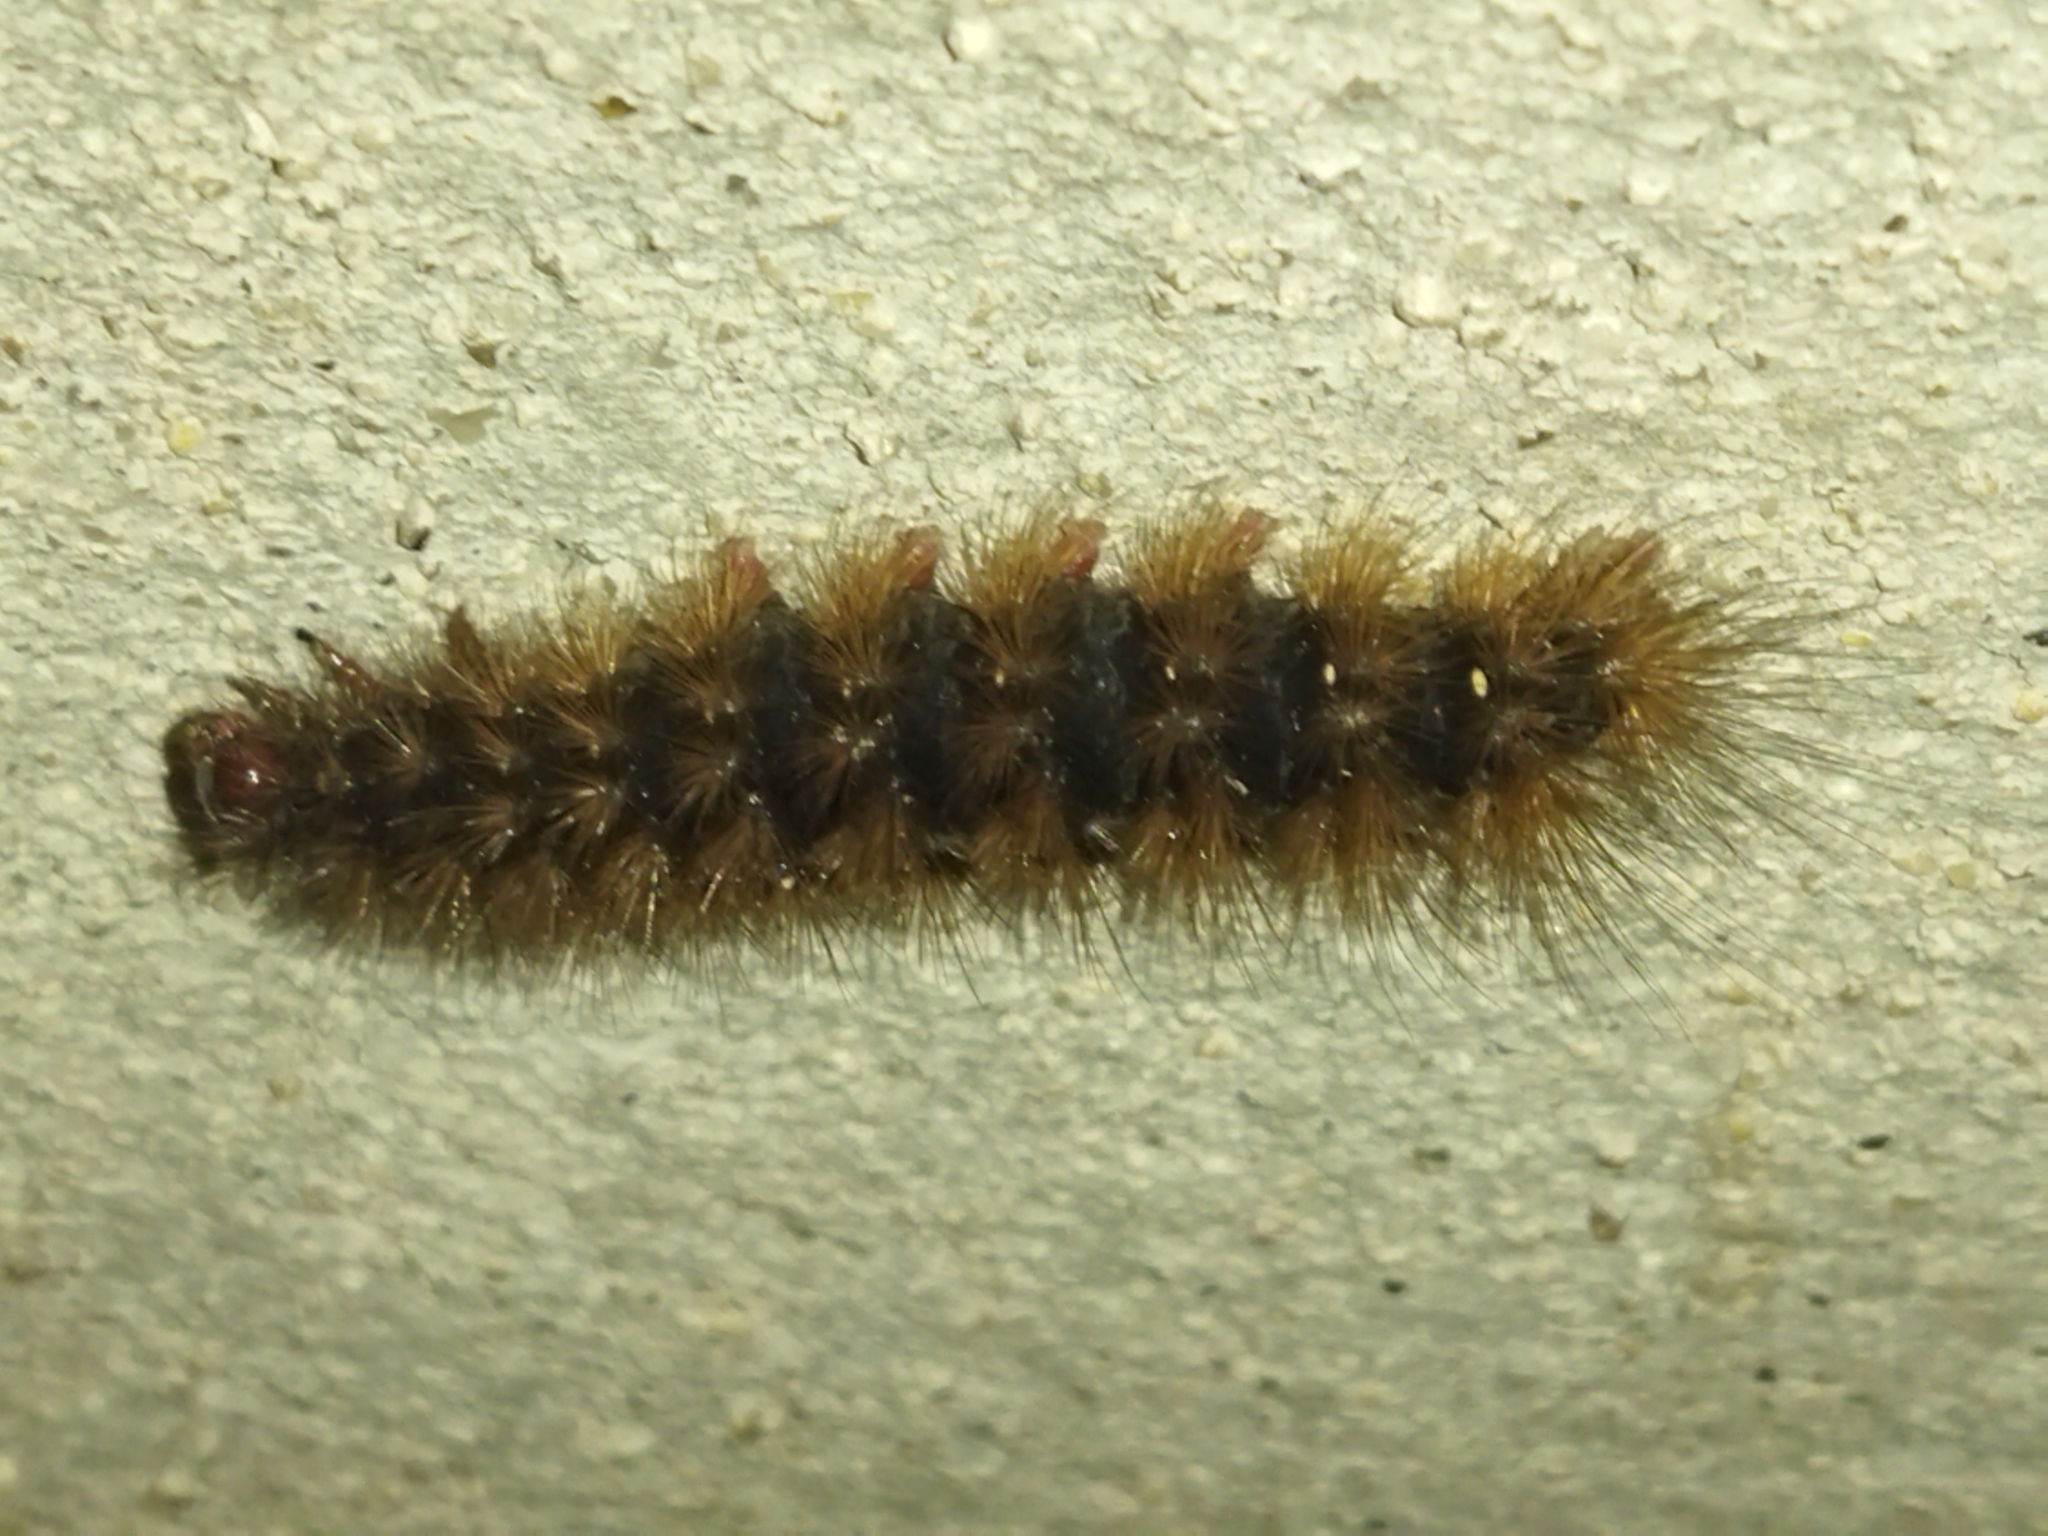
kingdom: Animalia
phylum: Arthropoda
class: Insecta
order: Lepidoptera
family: Erebidae
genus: Epicallia
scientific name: Epicallia villica
